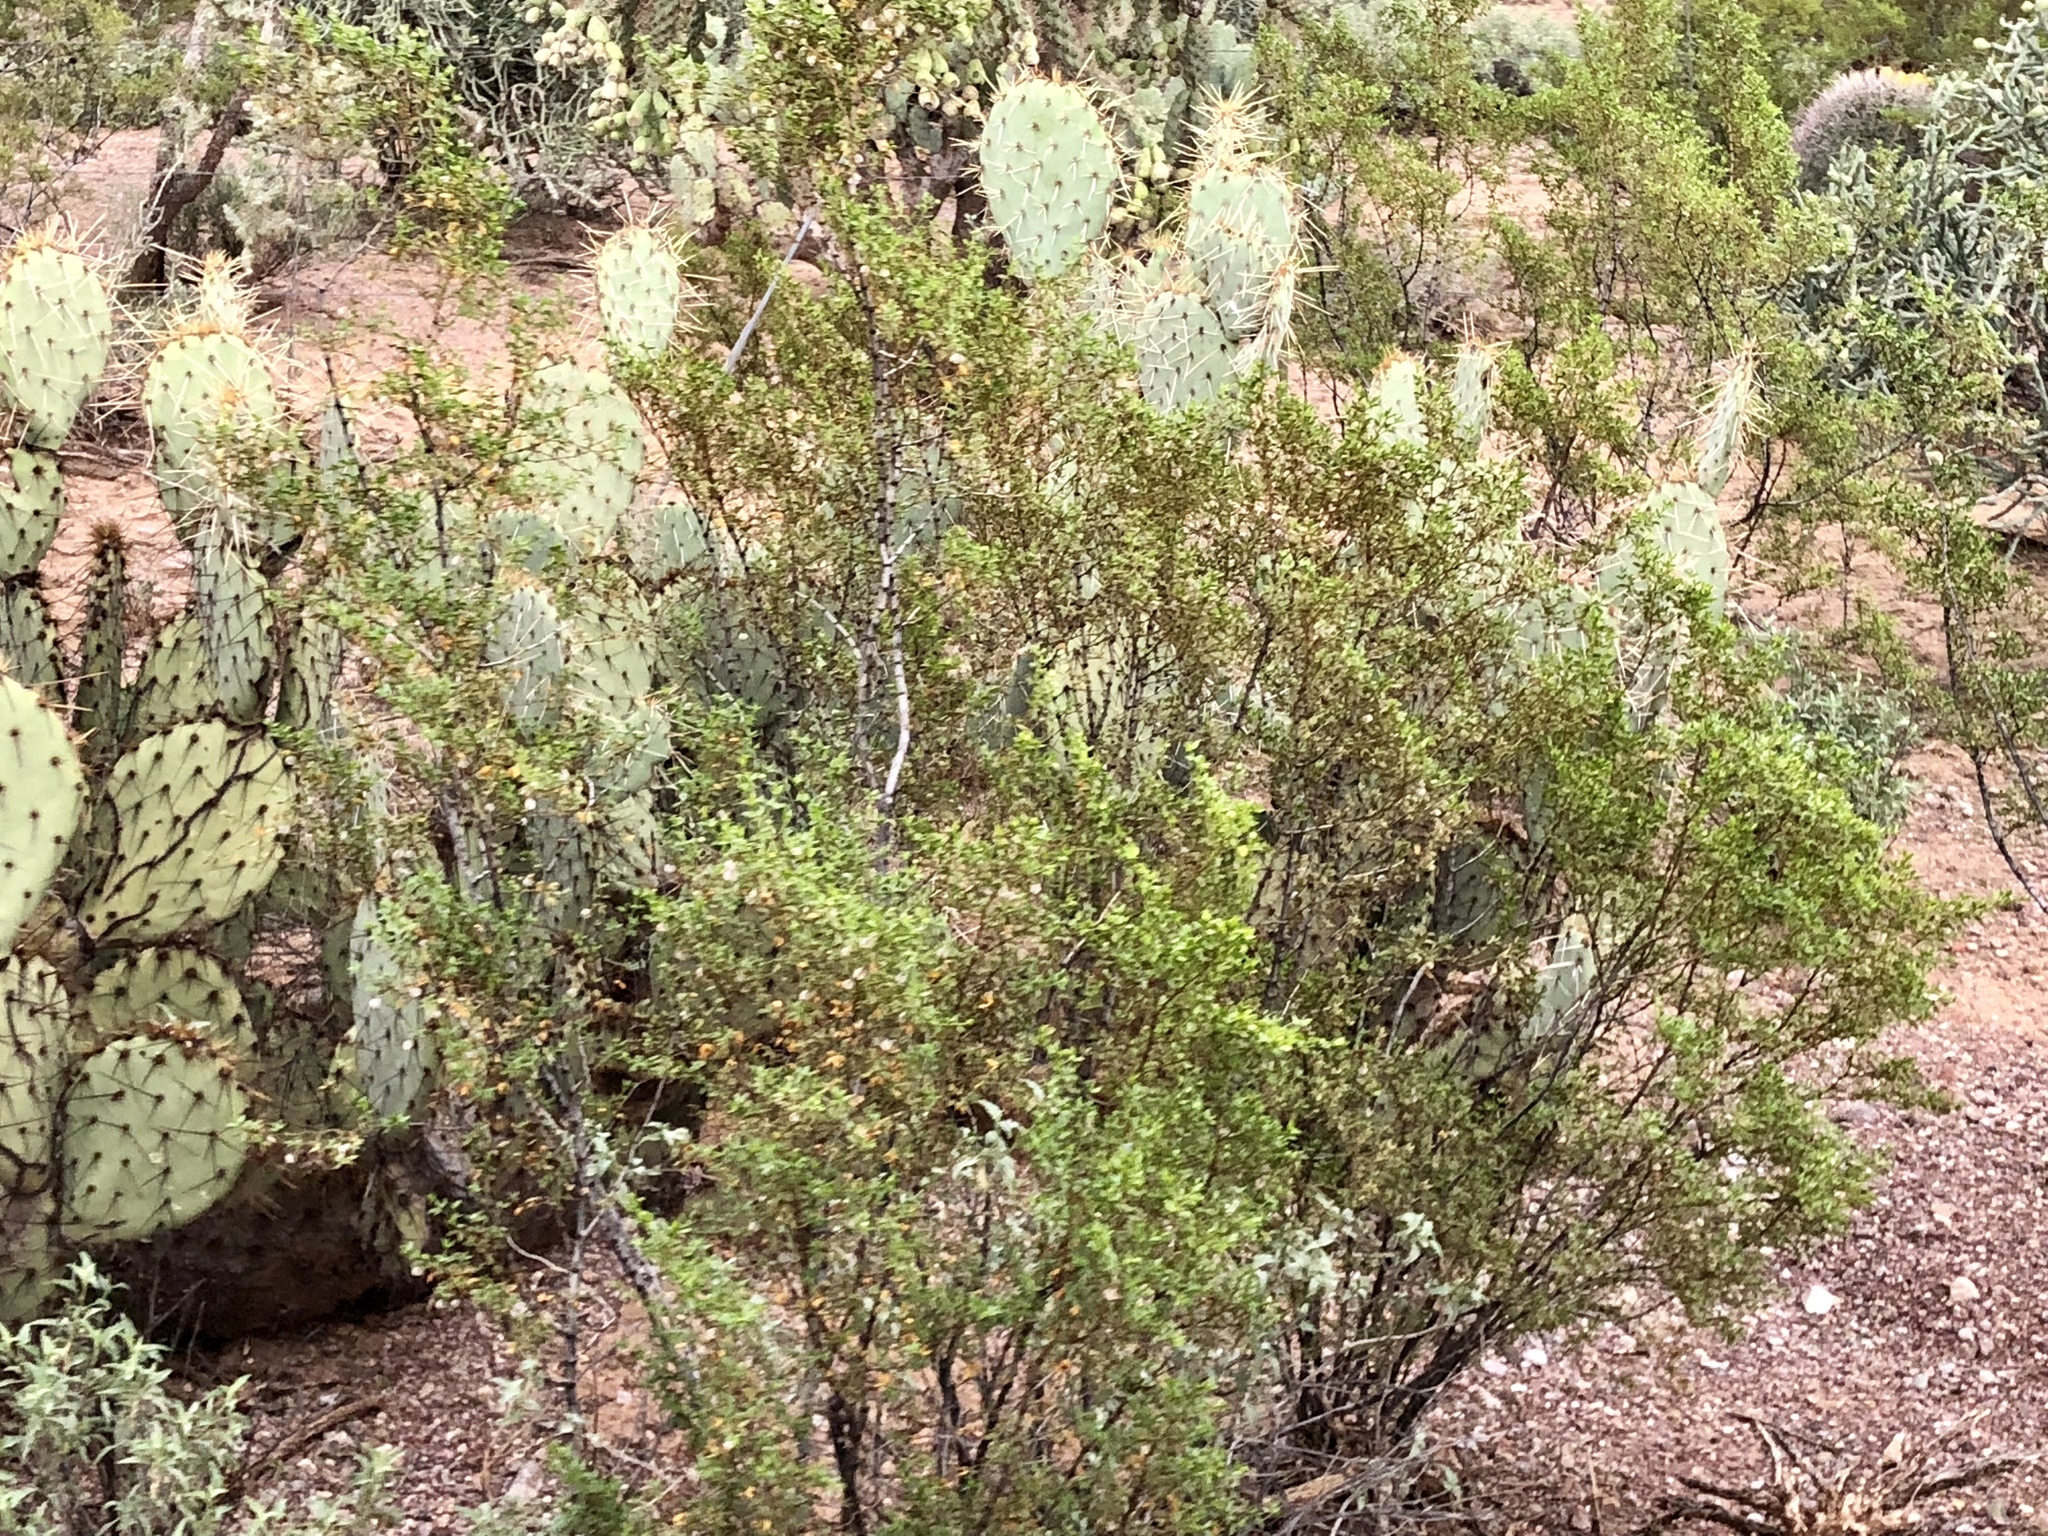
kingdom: Plantae
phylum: Tracheophyta
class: Magnoliopsida
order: Zygophyllales
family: Zygophyllaceae
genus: Larrea
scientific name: Larrea tridentata
